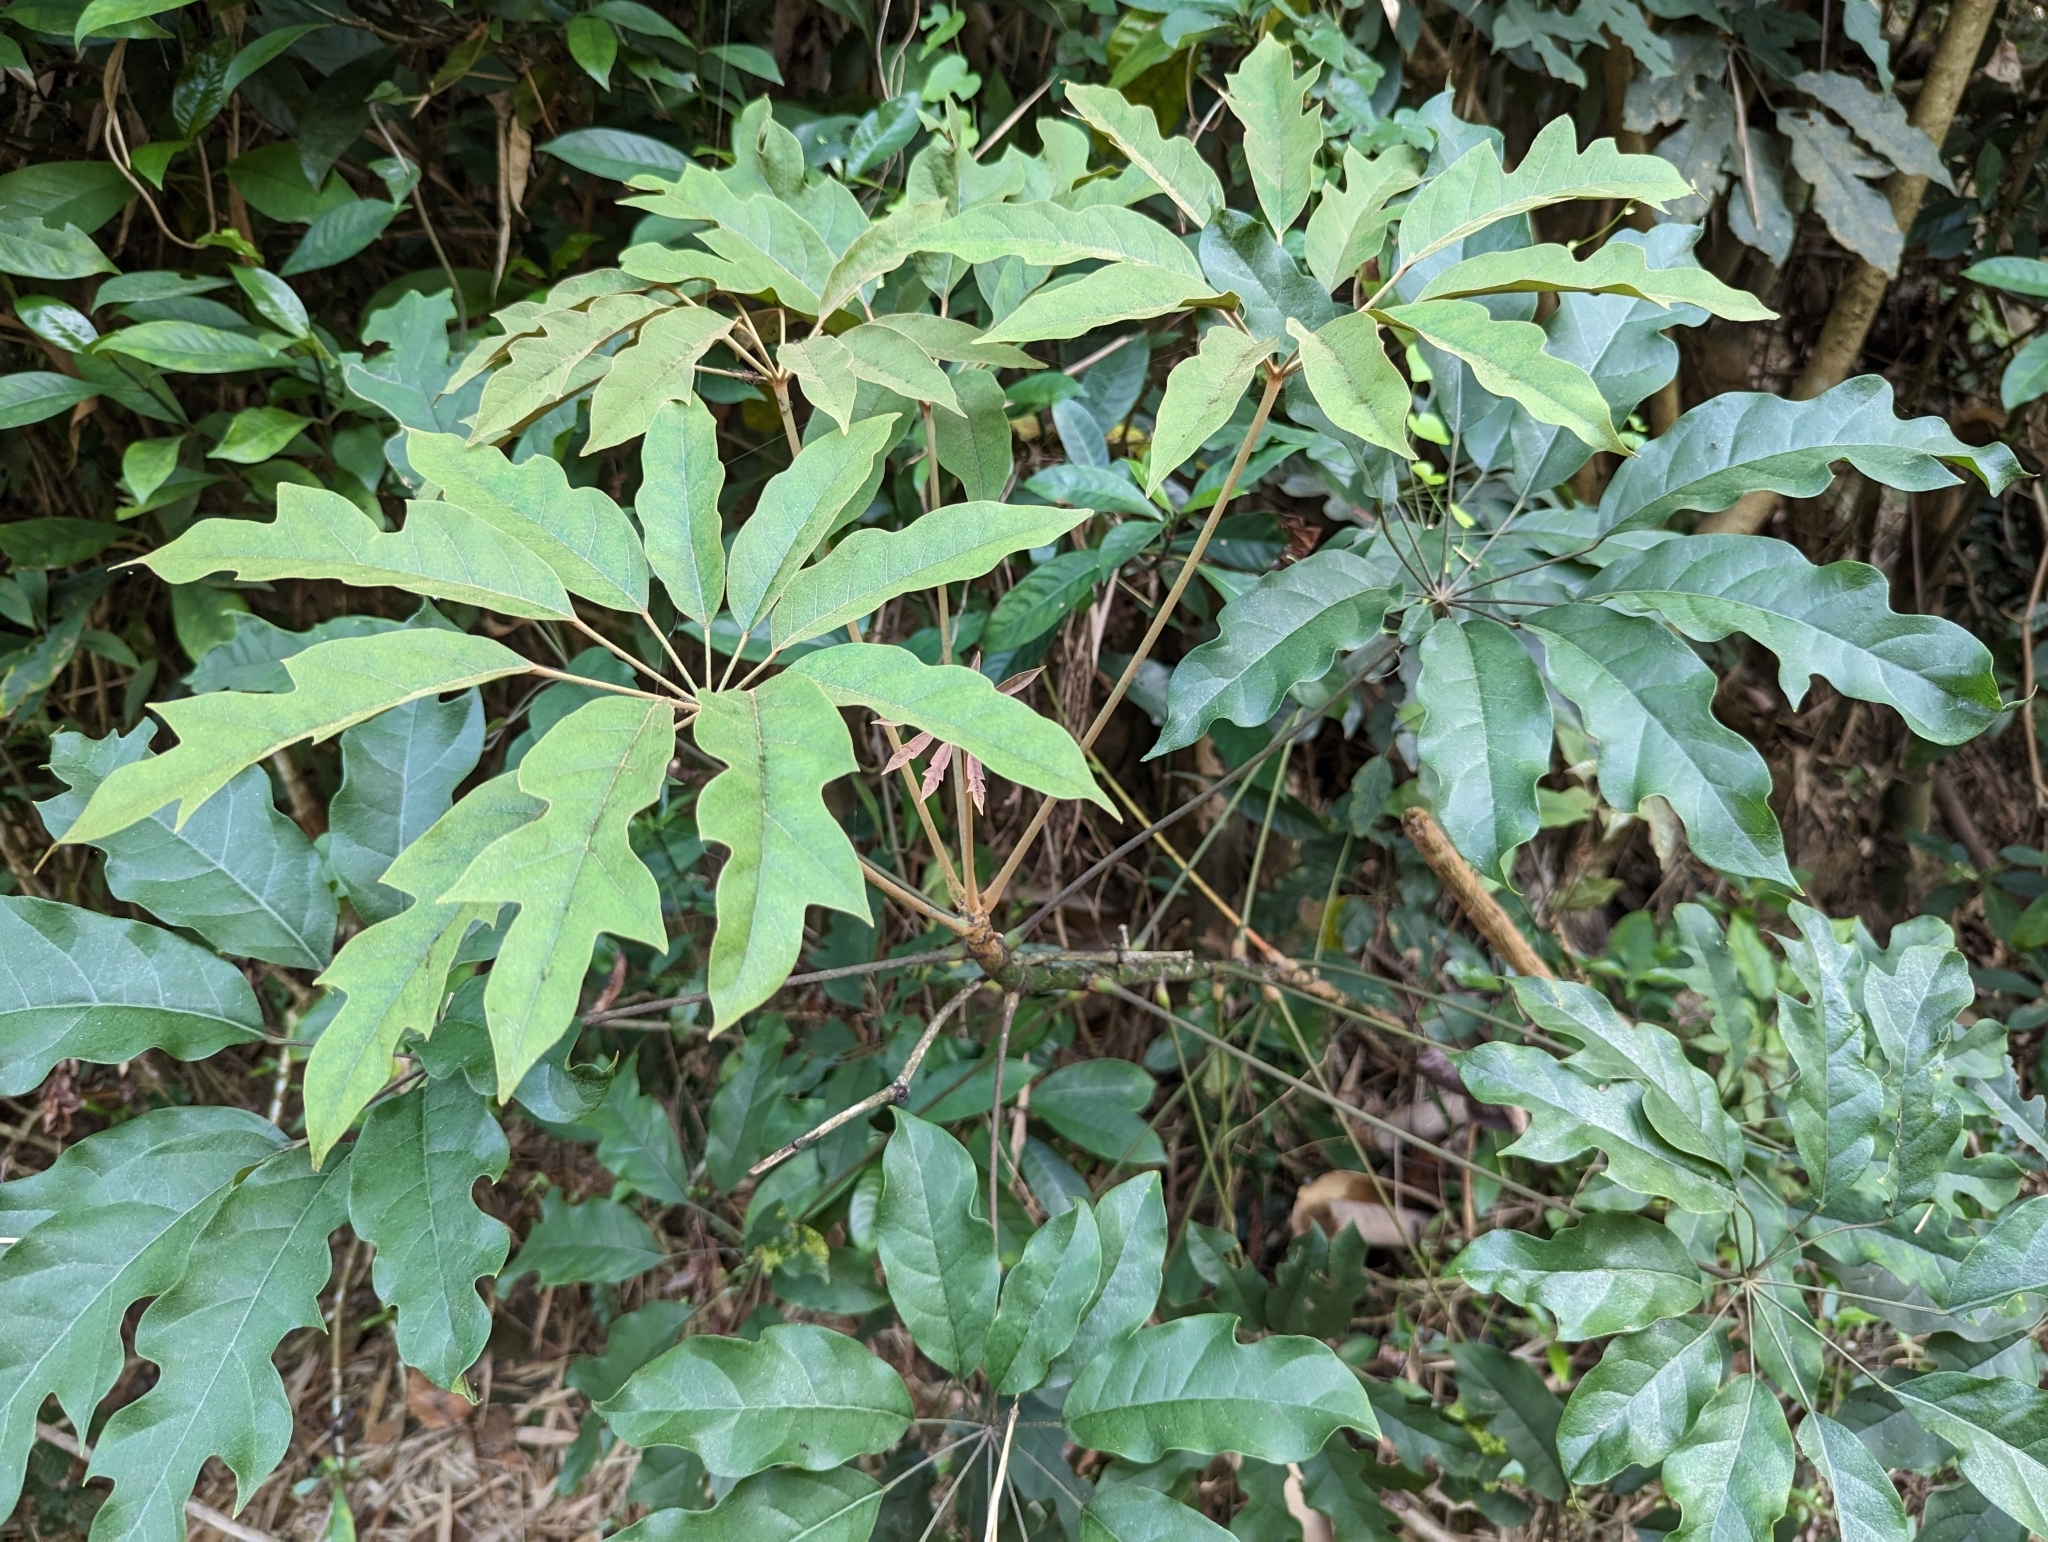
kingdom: Plantae
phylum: Tracheophyta
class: Magnoliopsida
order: Apiales
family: Araliaceae
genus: Heptapleurum
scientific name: Heptapleurum heptaphyllum
